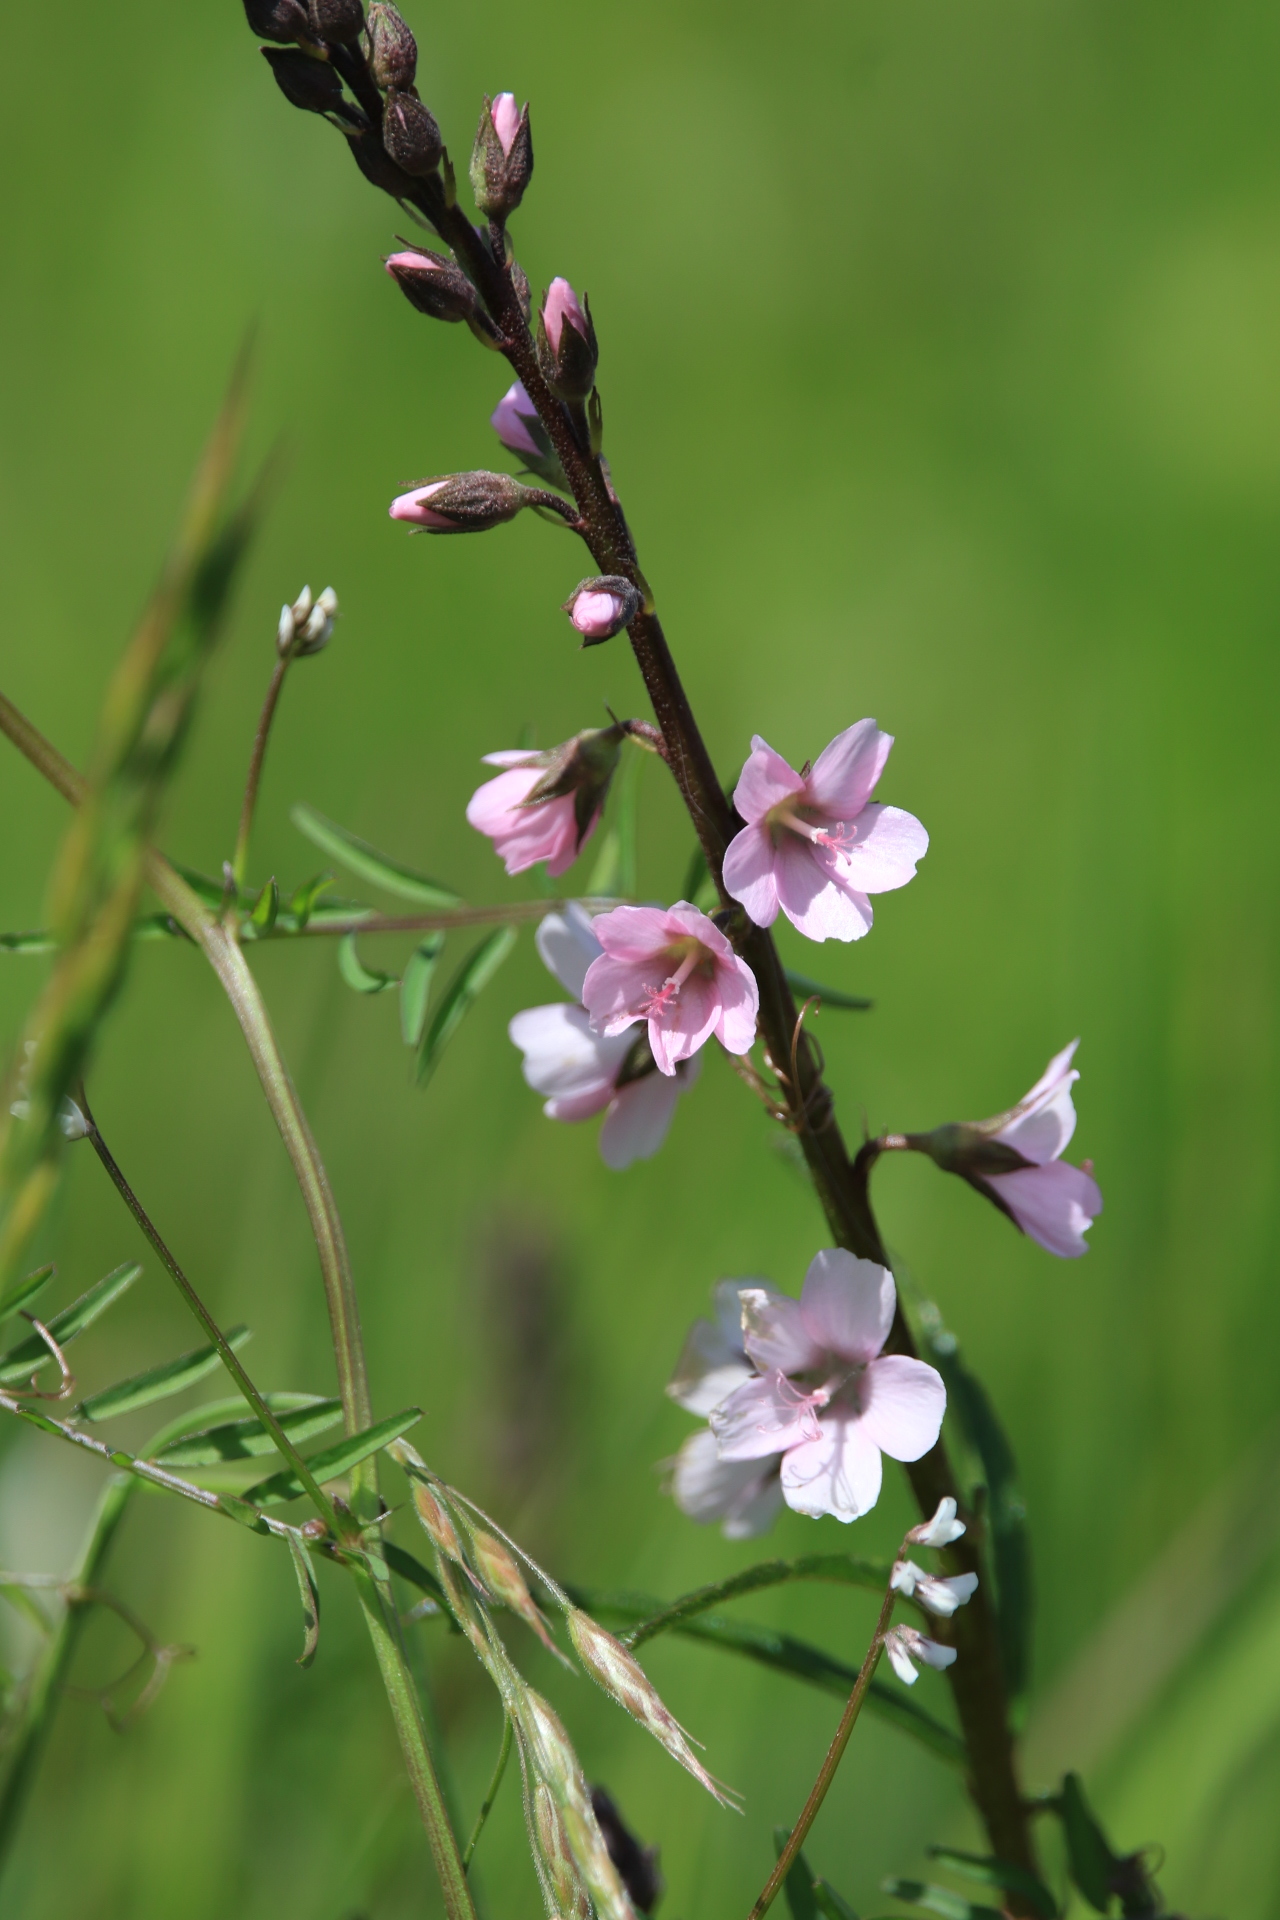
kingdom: Plantae
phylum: Tracheophyta
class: Magnoliopsida
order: Malvales
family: Malvaceae
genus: Sidalcea
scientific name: Sidalcea
